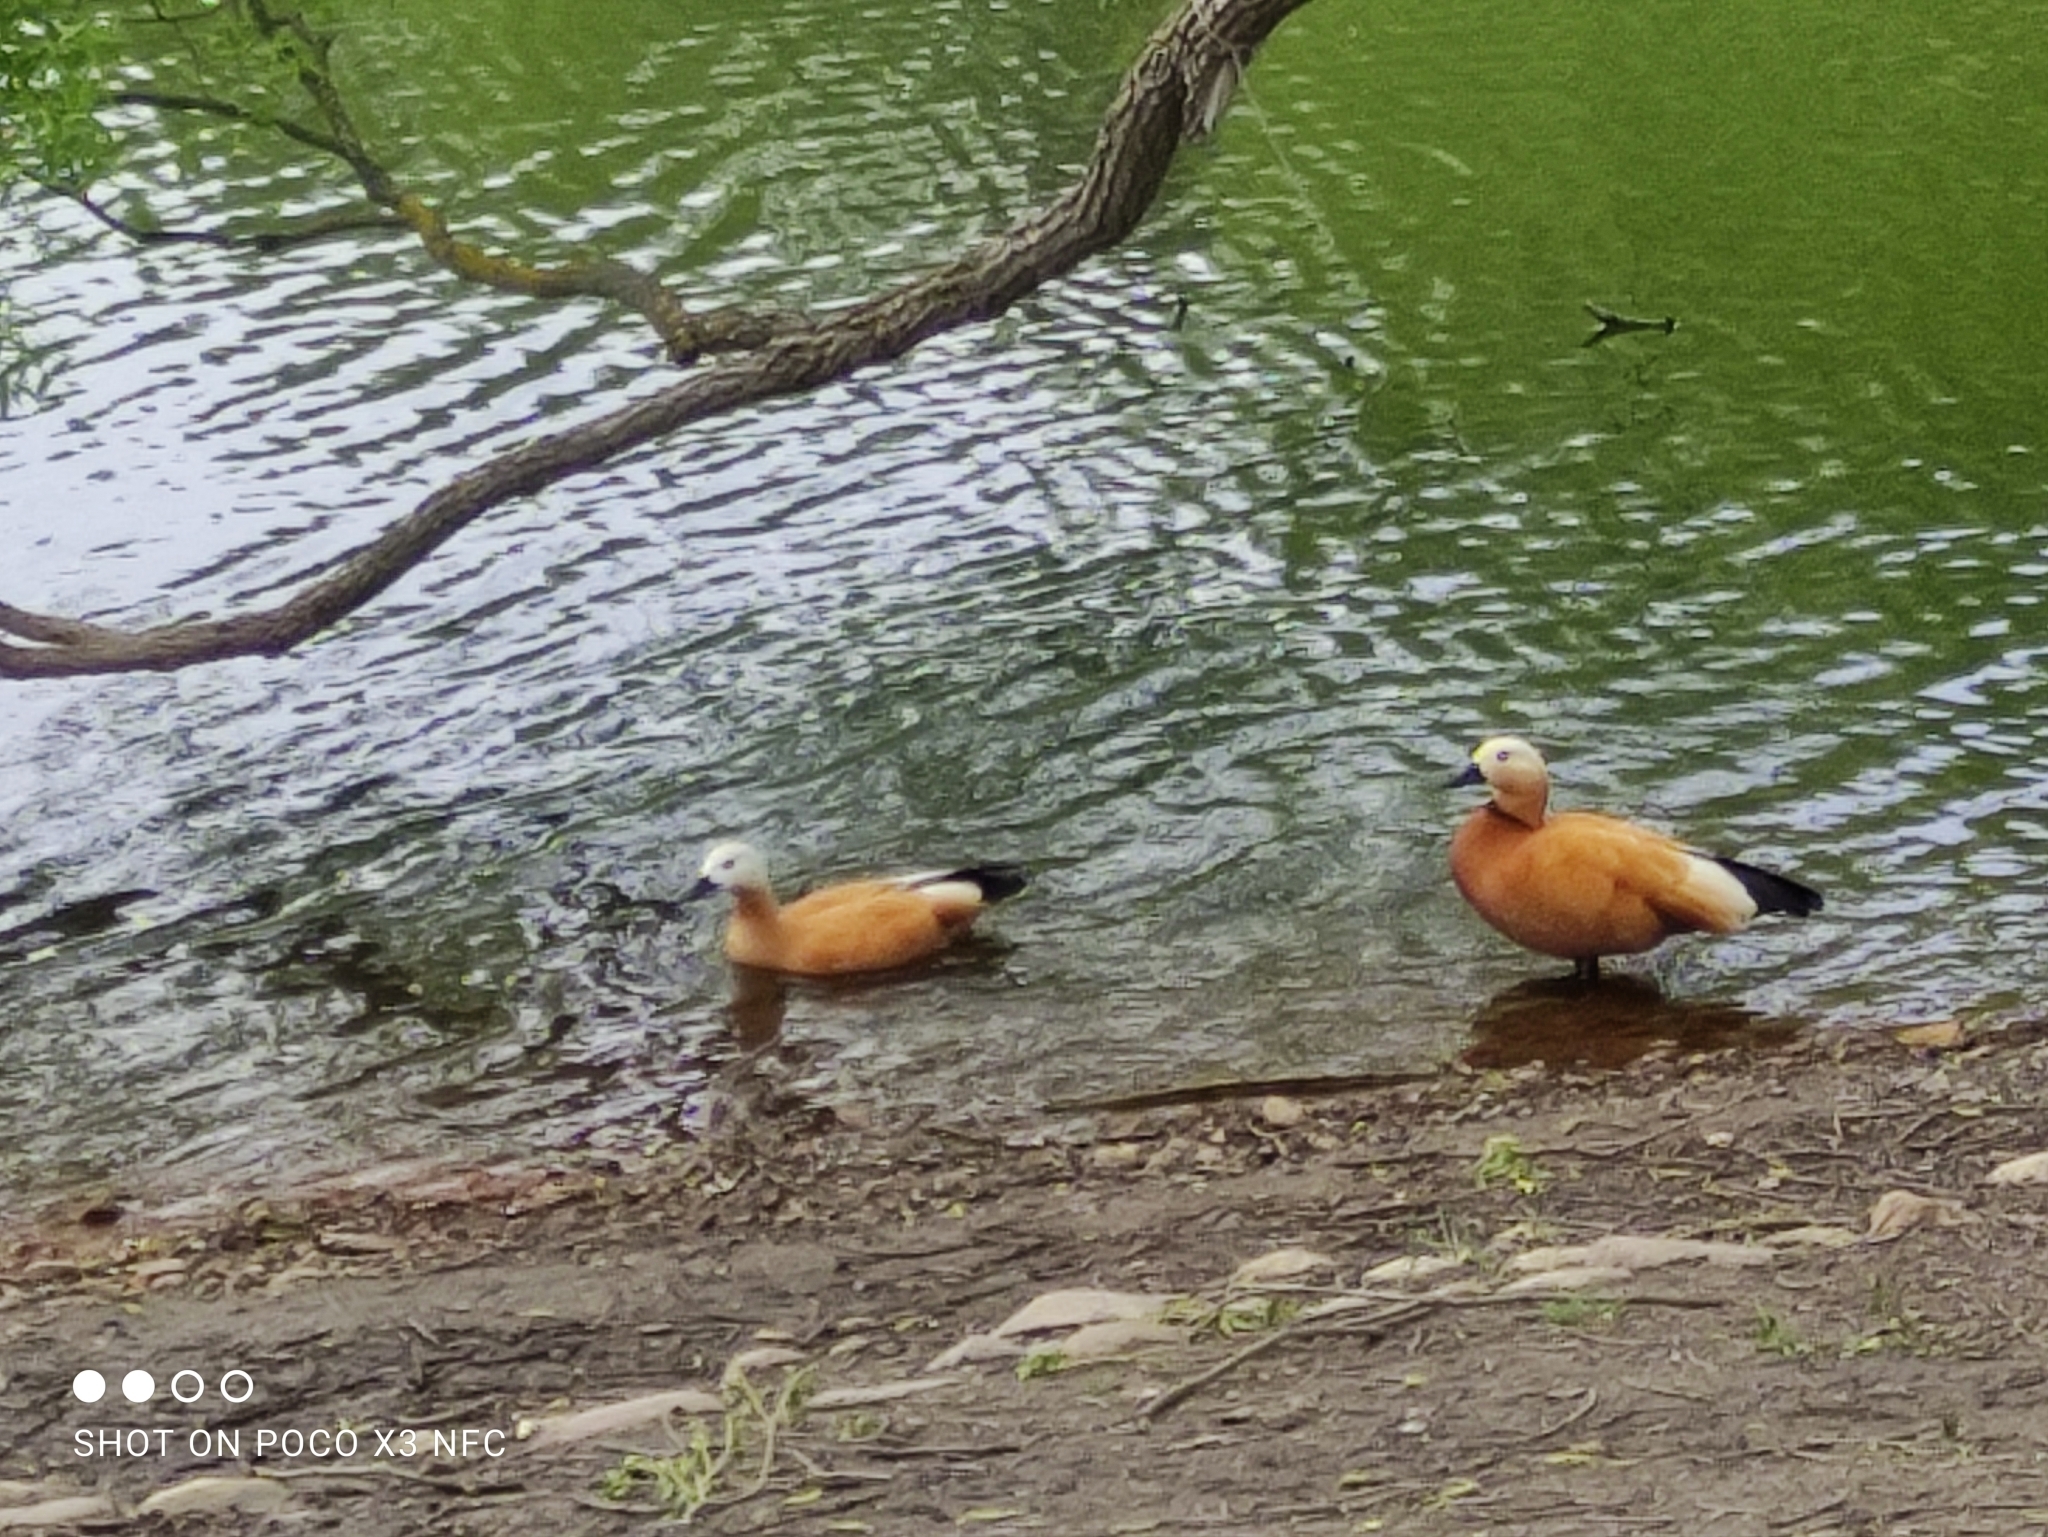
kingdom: Animalia
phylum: Chordata
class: Aves
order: Anseriformes
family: Anatidae
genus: Tadorna
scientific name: Tadorna ferruginea
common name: Ruddy shelduck
